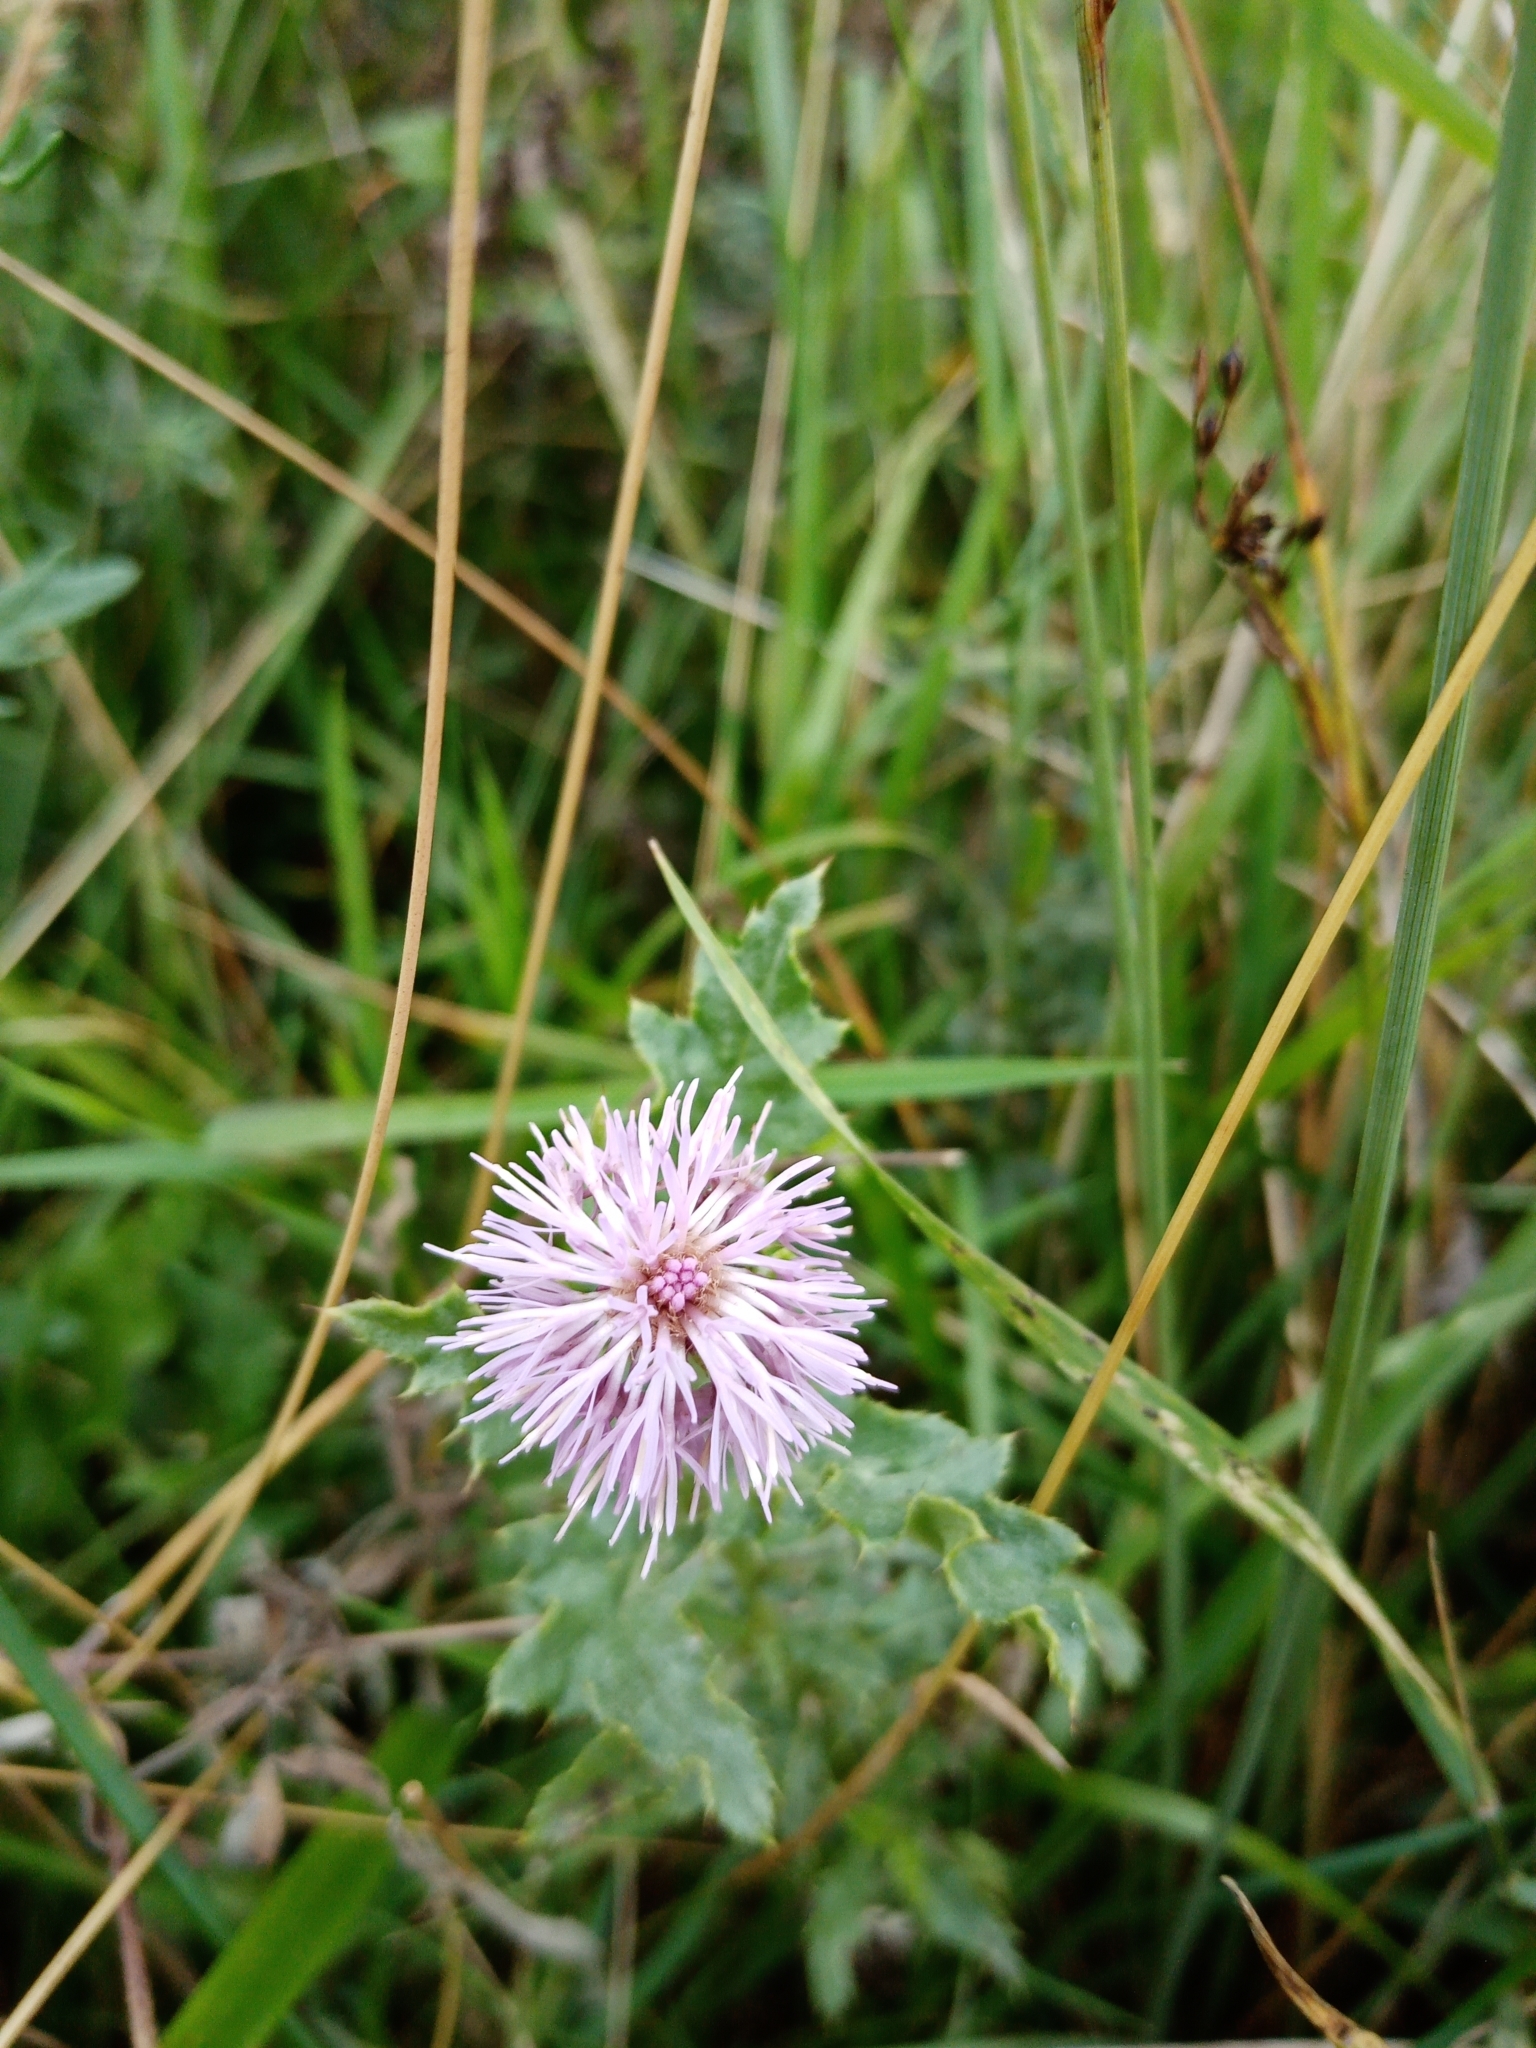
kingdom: Plantae
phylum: Tracheophyta
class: Magnoliopsida
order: Asterales
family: Asteraceae
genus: Cirsium
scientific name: Cirsium arvense
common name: Creeping thistle
